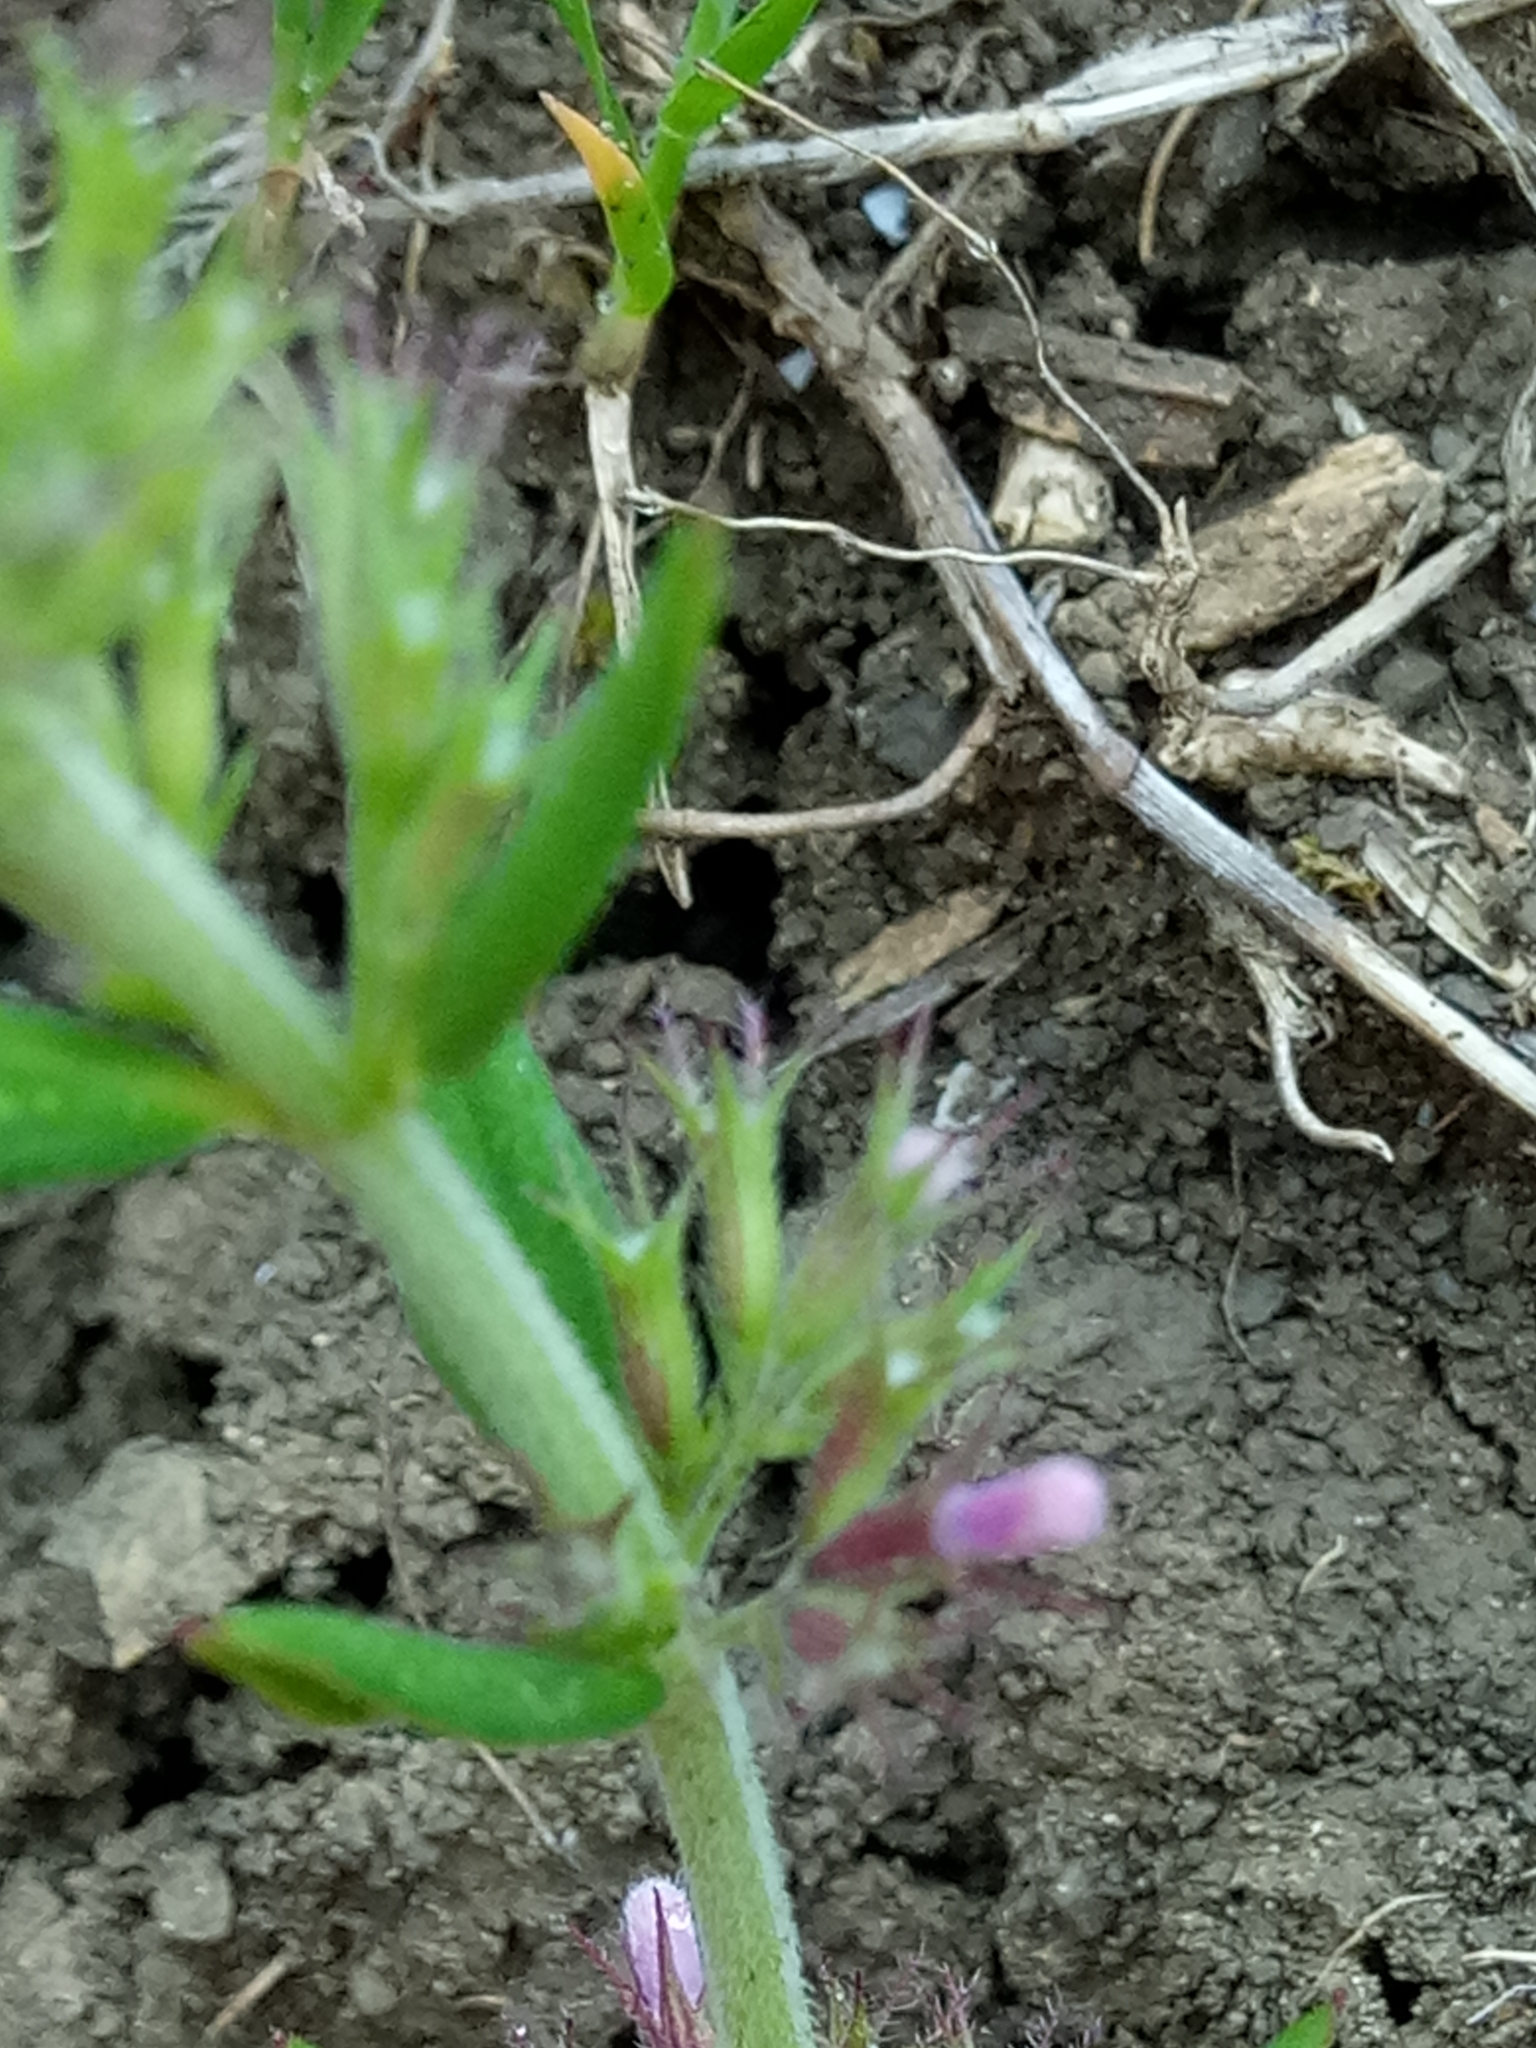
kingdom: Plantae
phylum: Tracheophyta
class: Magnoliopsida
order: Lamiales
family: Lamiaceae
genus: Micromeria
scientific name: Micromeria graeca
